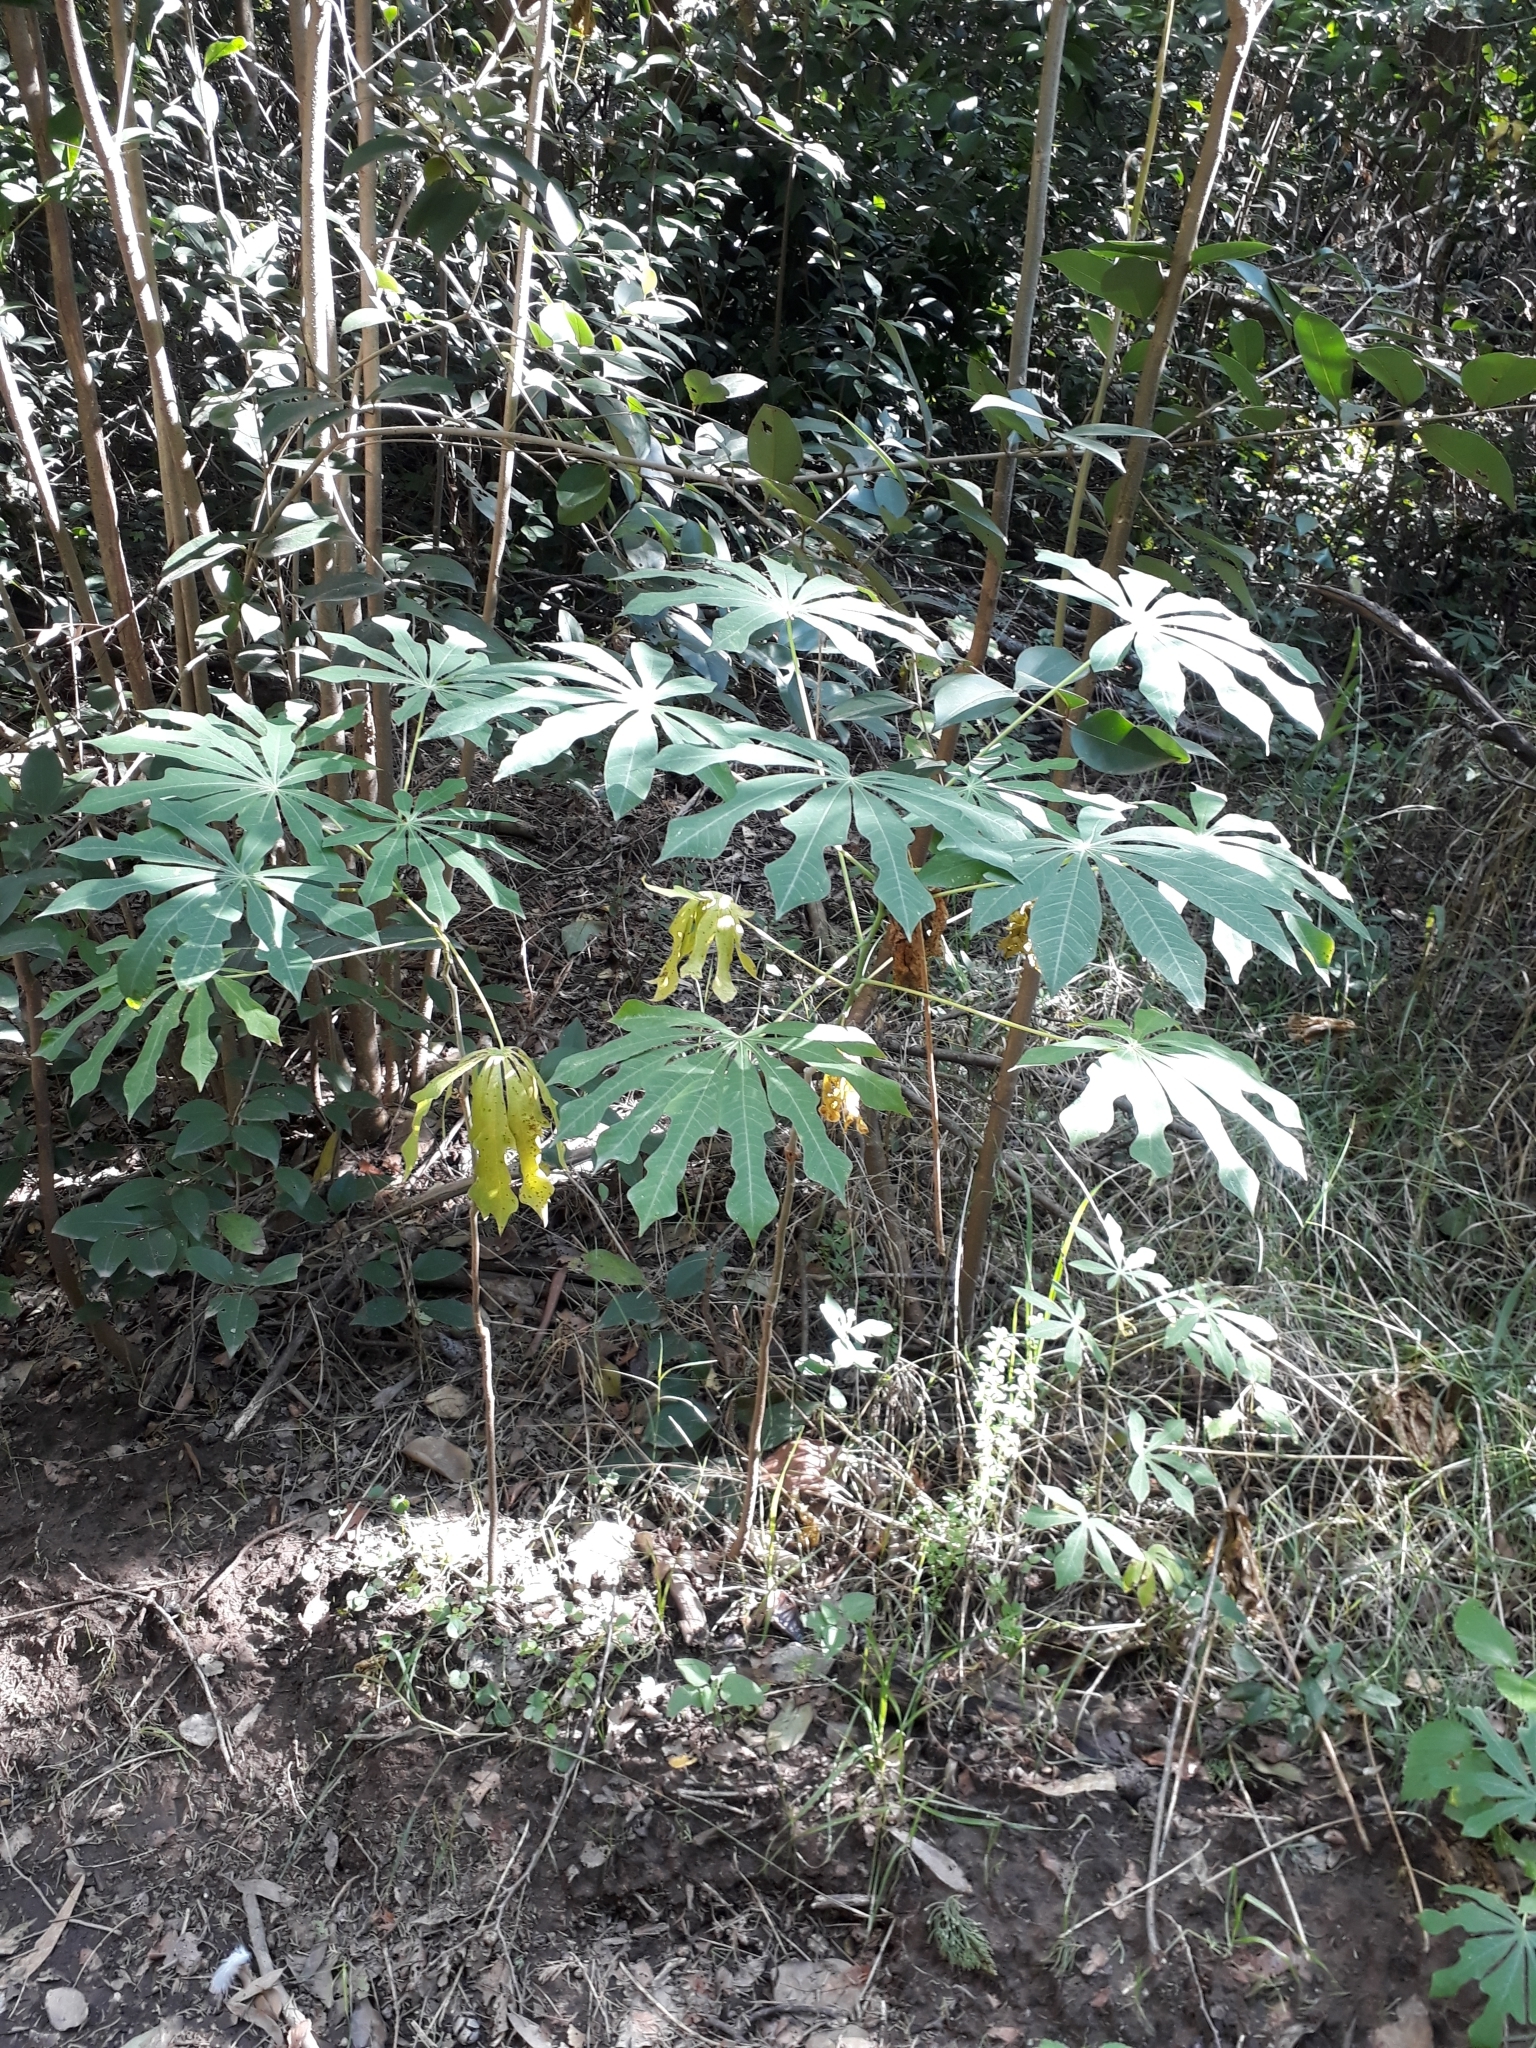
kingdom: Plantae
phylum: Tracheophyta
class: Magnoliopsida
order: Malpighiales
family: Euphorbiaceae
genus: Manihot
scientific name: Manihot grahamii
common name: Graham's manihot
